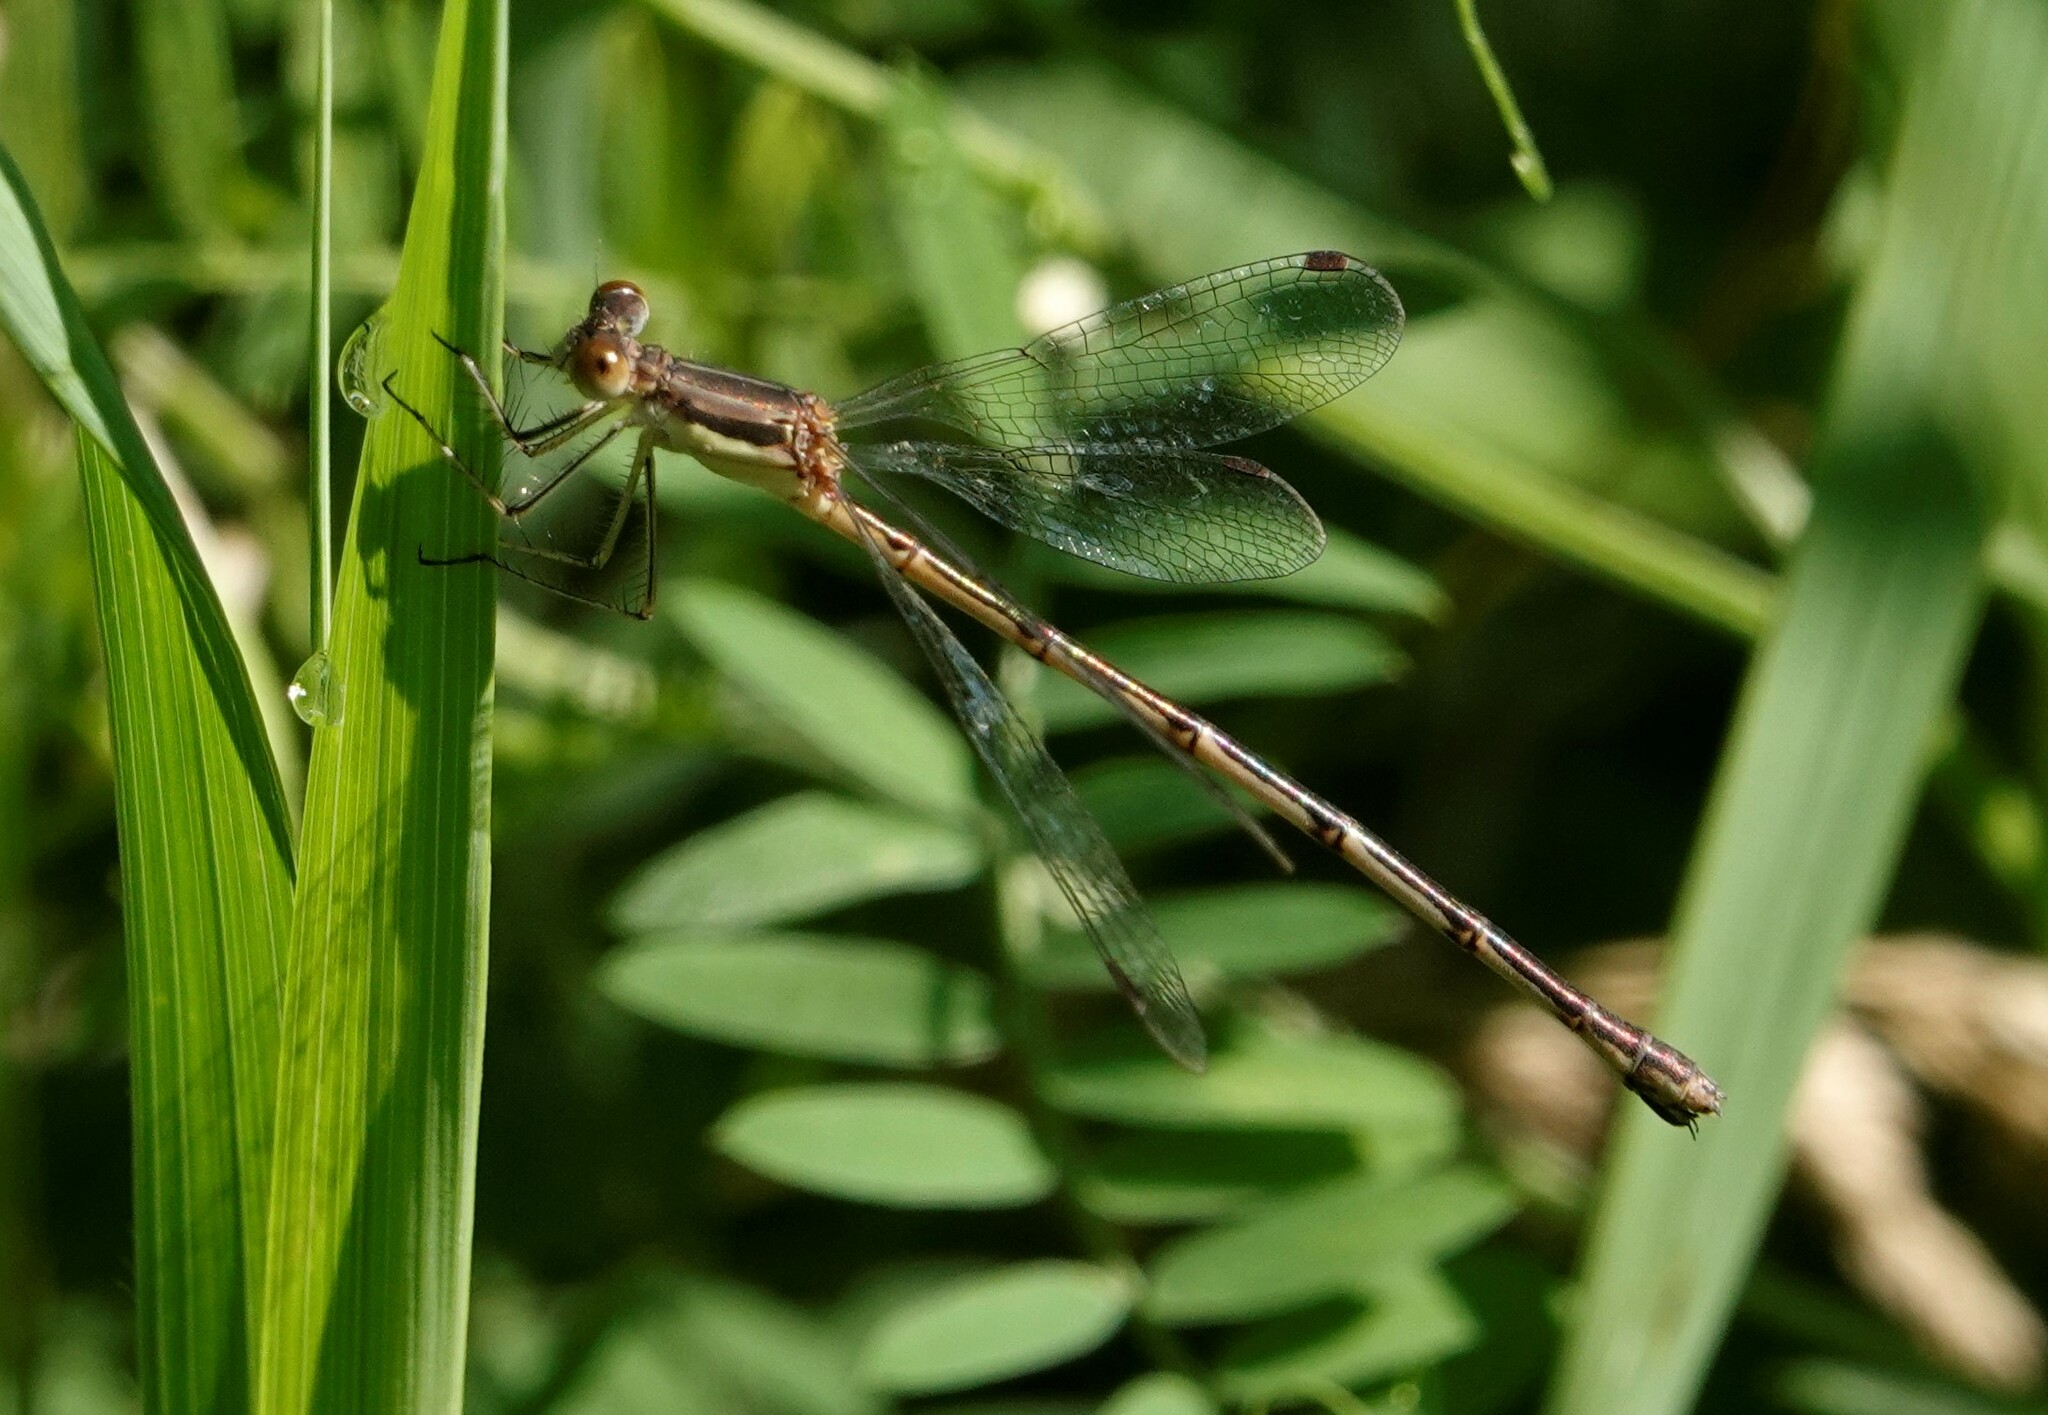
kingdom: Animalia
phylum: Arthropoda
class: Insecta
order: Odonata
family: Lestidae
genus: Lestes
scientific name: Lestes rectangularis
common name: Slender spreadwing
